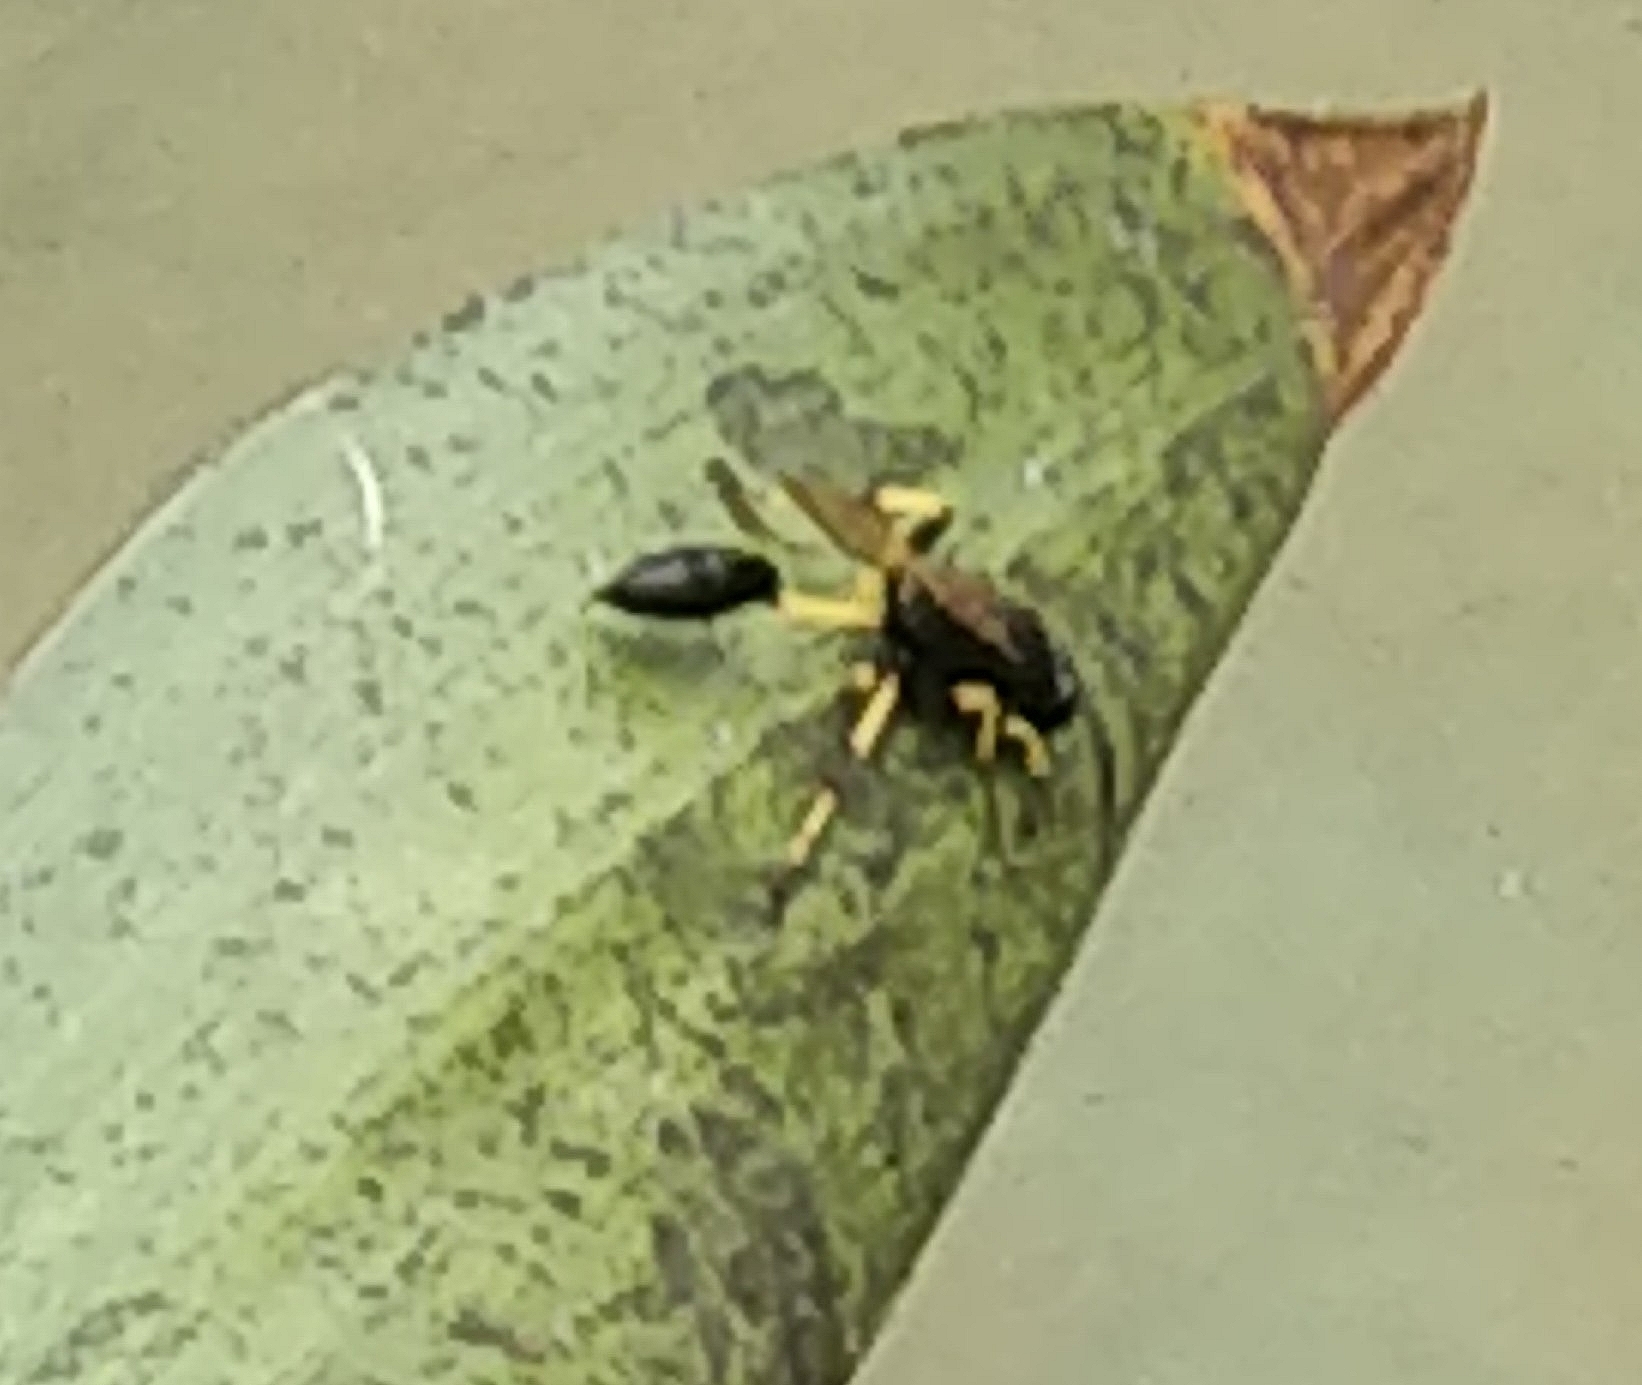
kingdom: Animalia
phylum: Arthropoda
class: Insecta
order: Hymenoptera
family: Sphecidae
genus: Sceliphron
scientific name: Sceliphron spirifex
